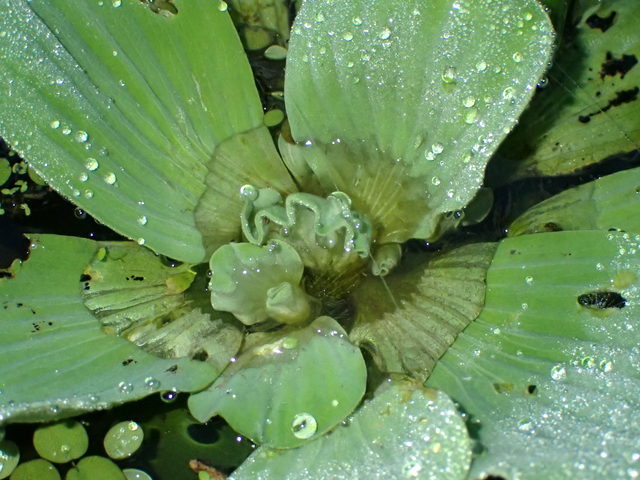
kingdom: Plantae
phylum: Tracheophyta
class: Liliopsida
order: Alismatales
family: Araceae
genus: Pistia
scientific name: Pistia stratiotes
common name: Water lettuce
